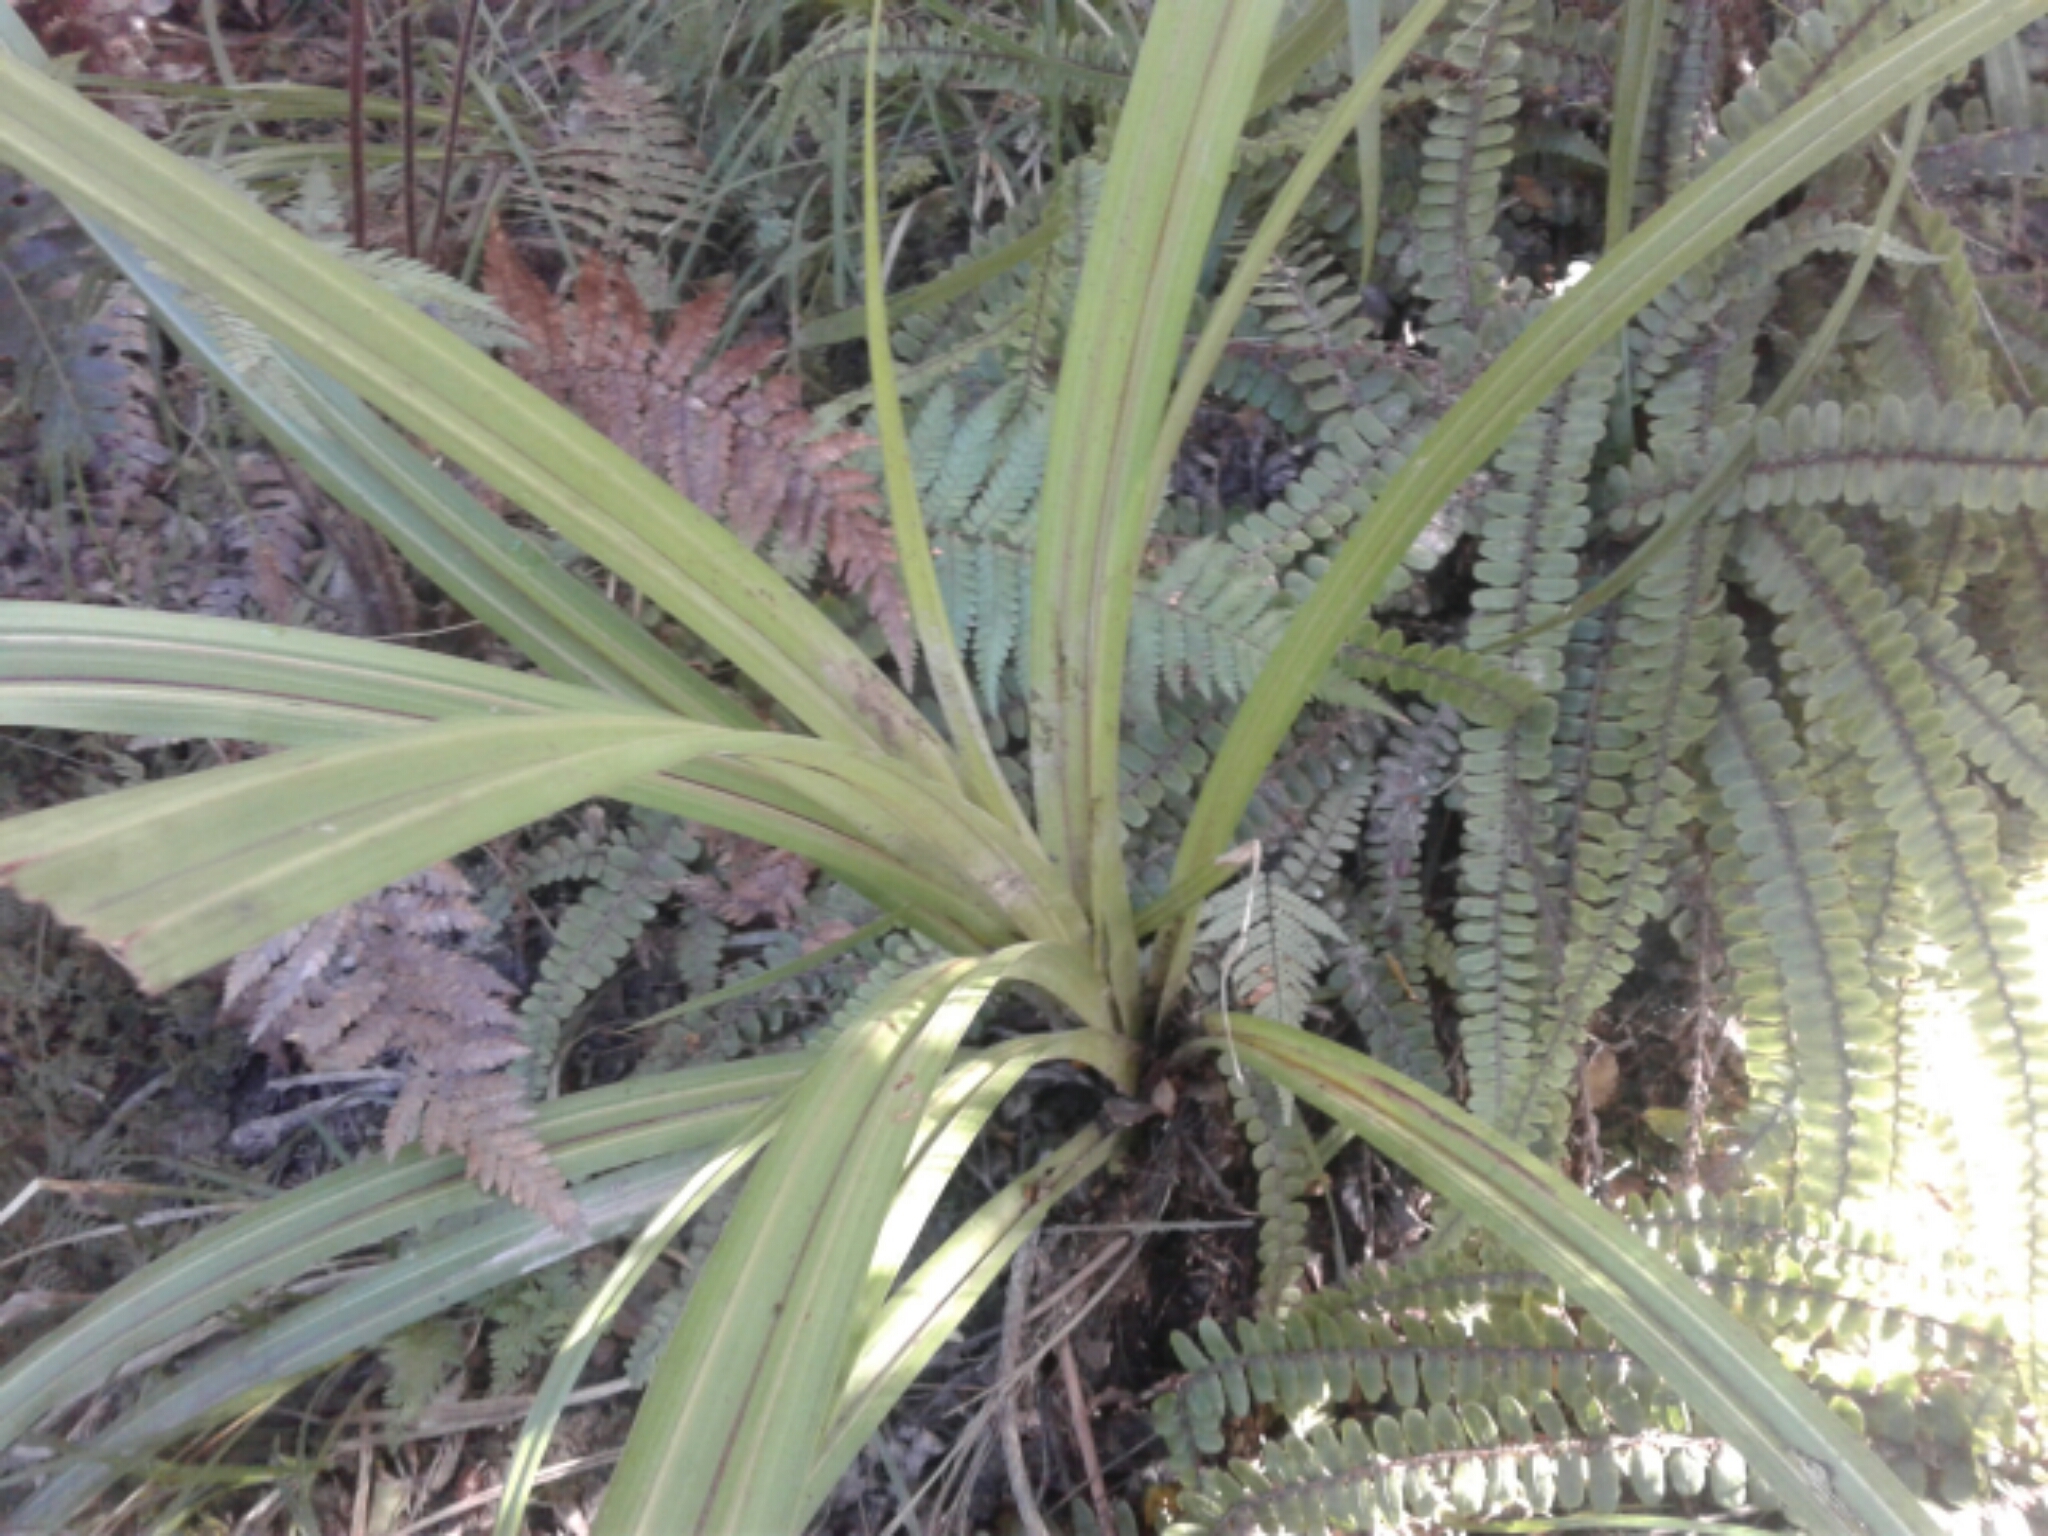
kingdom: Plantae
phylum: Tracheophyta
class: Liliopsida
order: Asparagales
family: Asteliaceae
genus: Astelia
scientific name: Astelia fragrans
